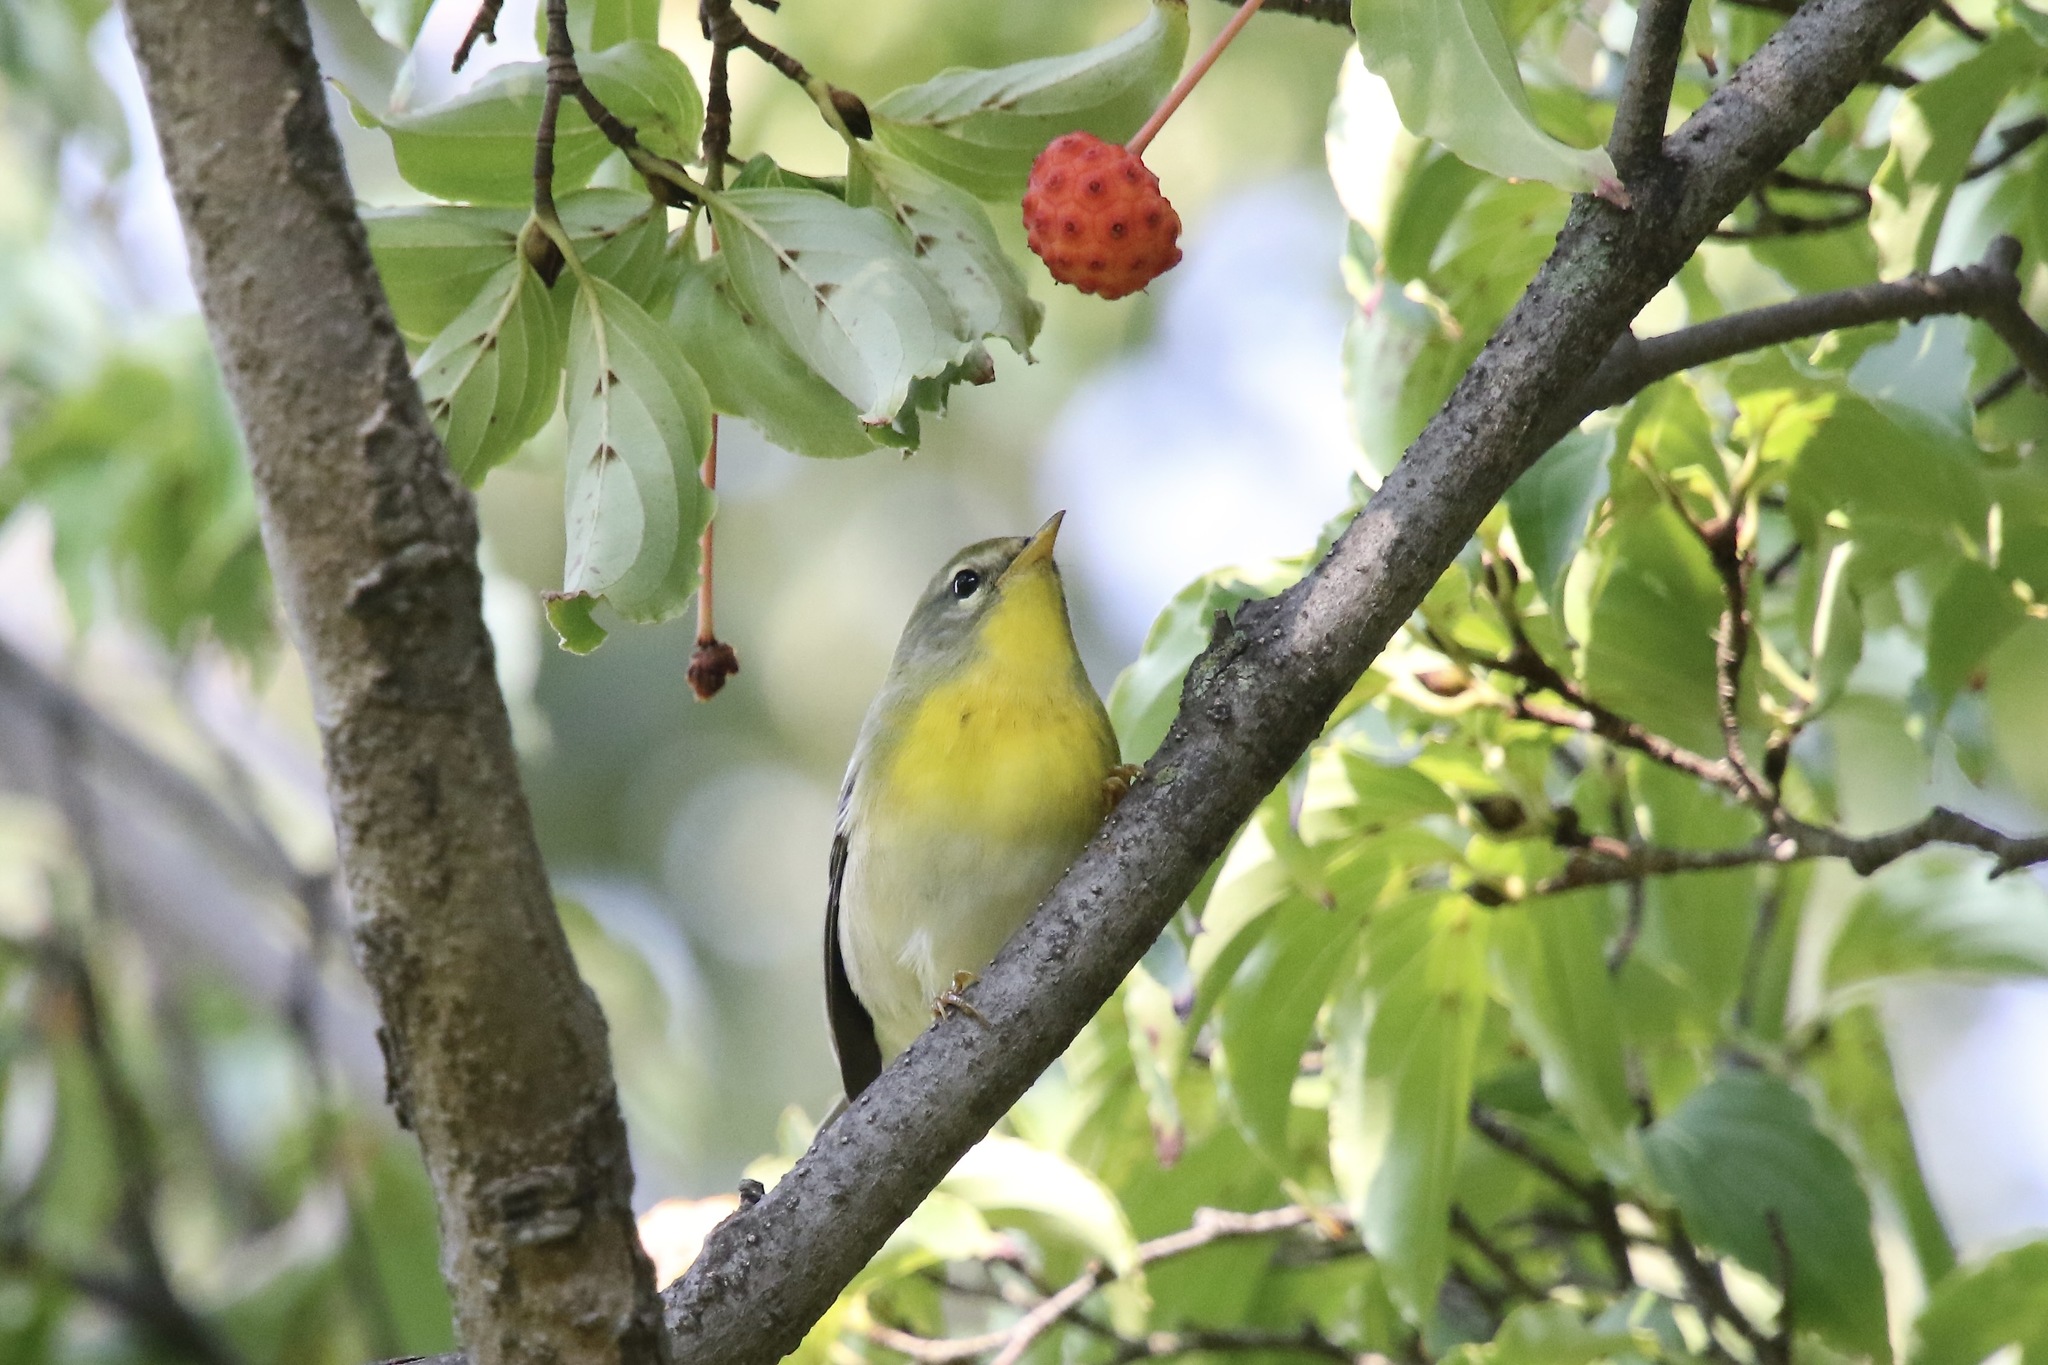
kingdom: Animalia
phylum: Chordata
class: Aves
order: Passeriformes
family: Parulidae
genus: Setophaga
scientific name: Setophaga americana
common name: Northern parula
